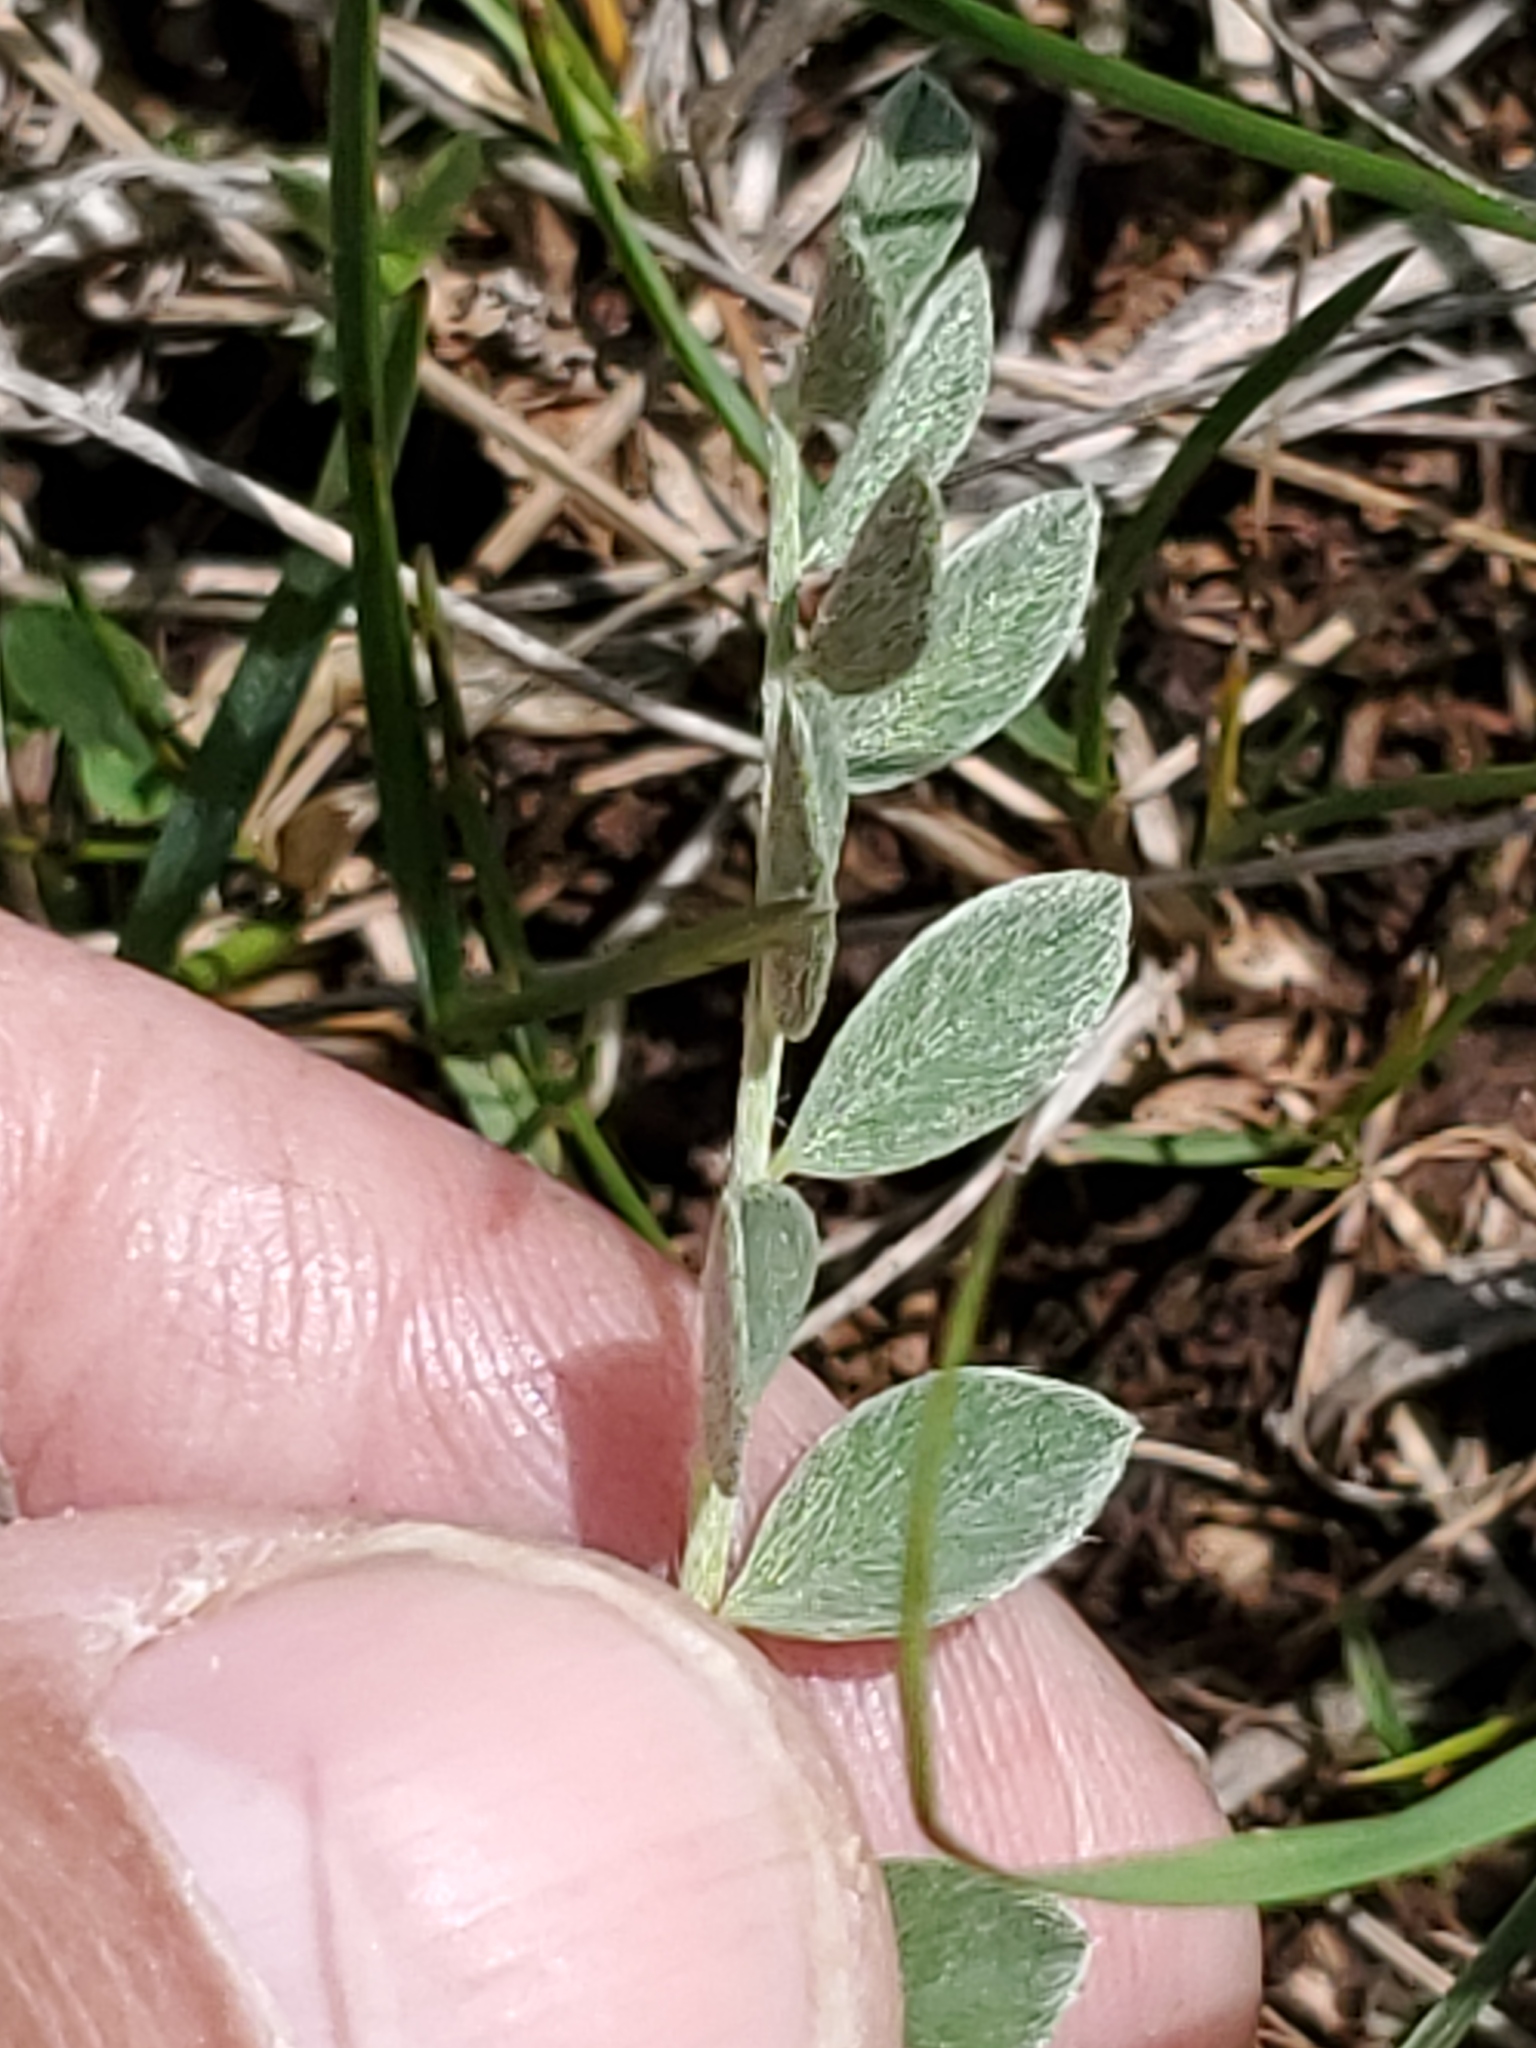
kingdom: Plantae
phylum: Tracheophyta
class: Magnoliopsida
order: Fabales
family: Fabaceae
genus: Astragalus
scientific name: Astragalus missouriensis
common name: Missouri milk-vetch
